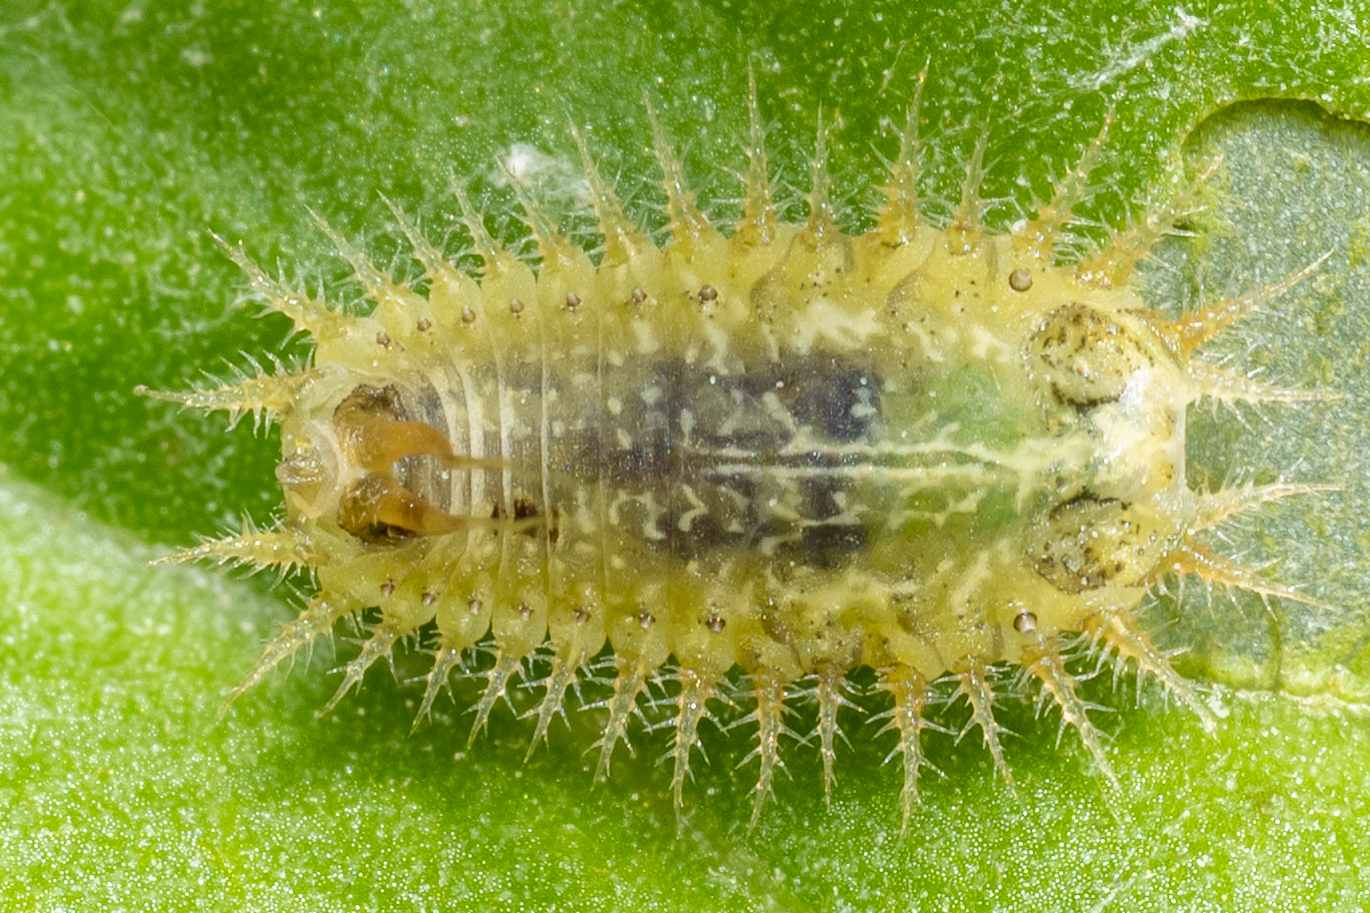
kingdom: Animalia
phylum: Arthropoda
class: Insecta
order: Coleoptera
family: Chrysomelidae
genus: Cassida
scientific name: Cassida rubiginosa
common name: Thistle tortoise beetle
